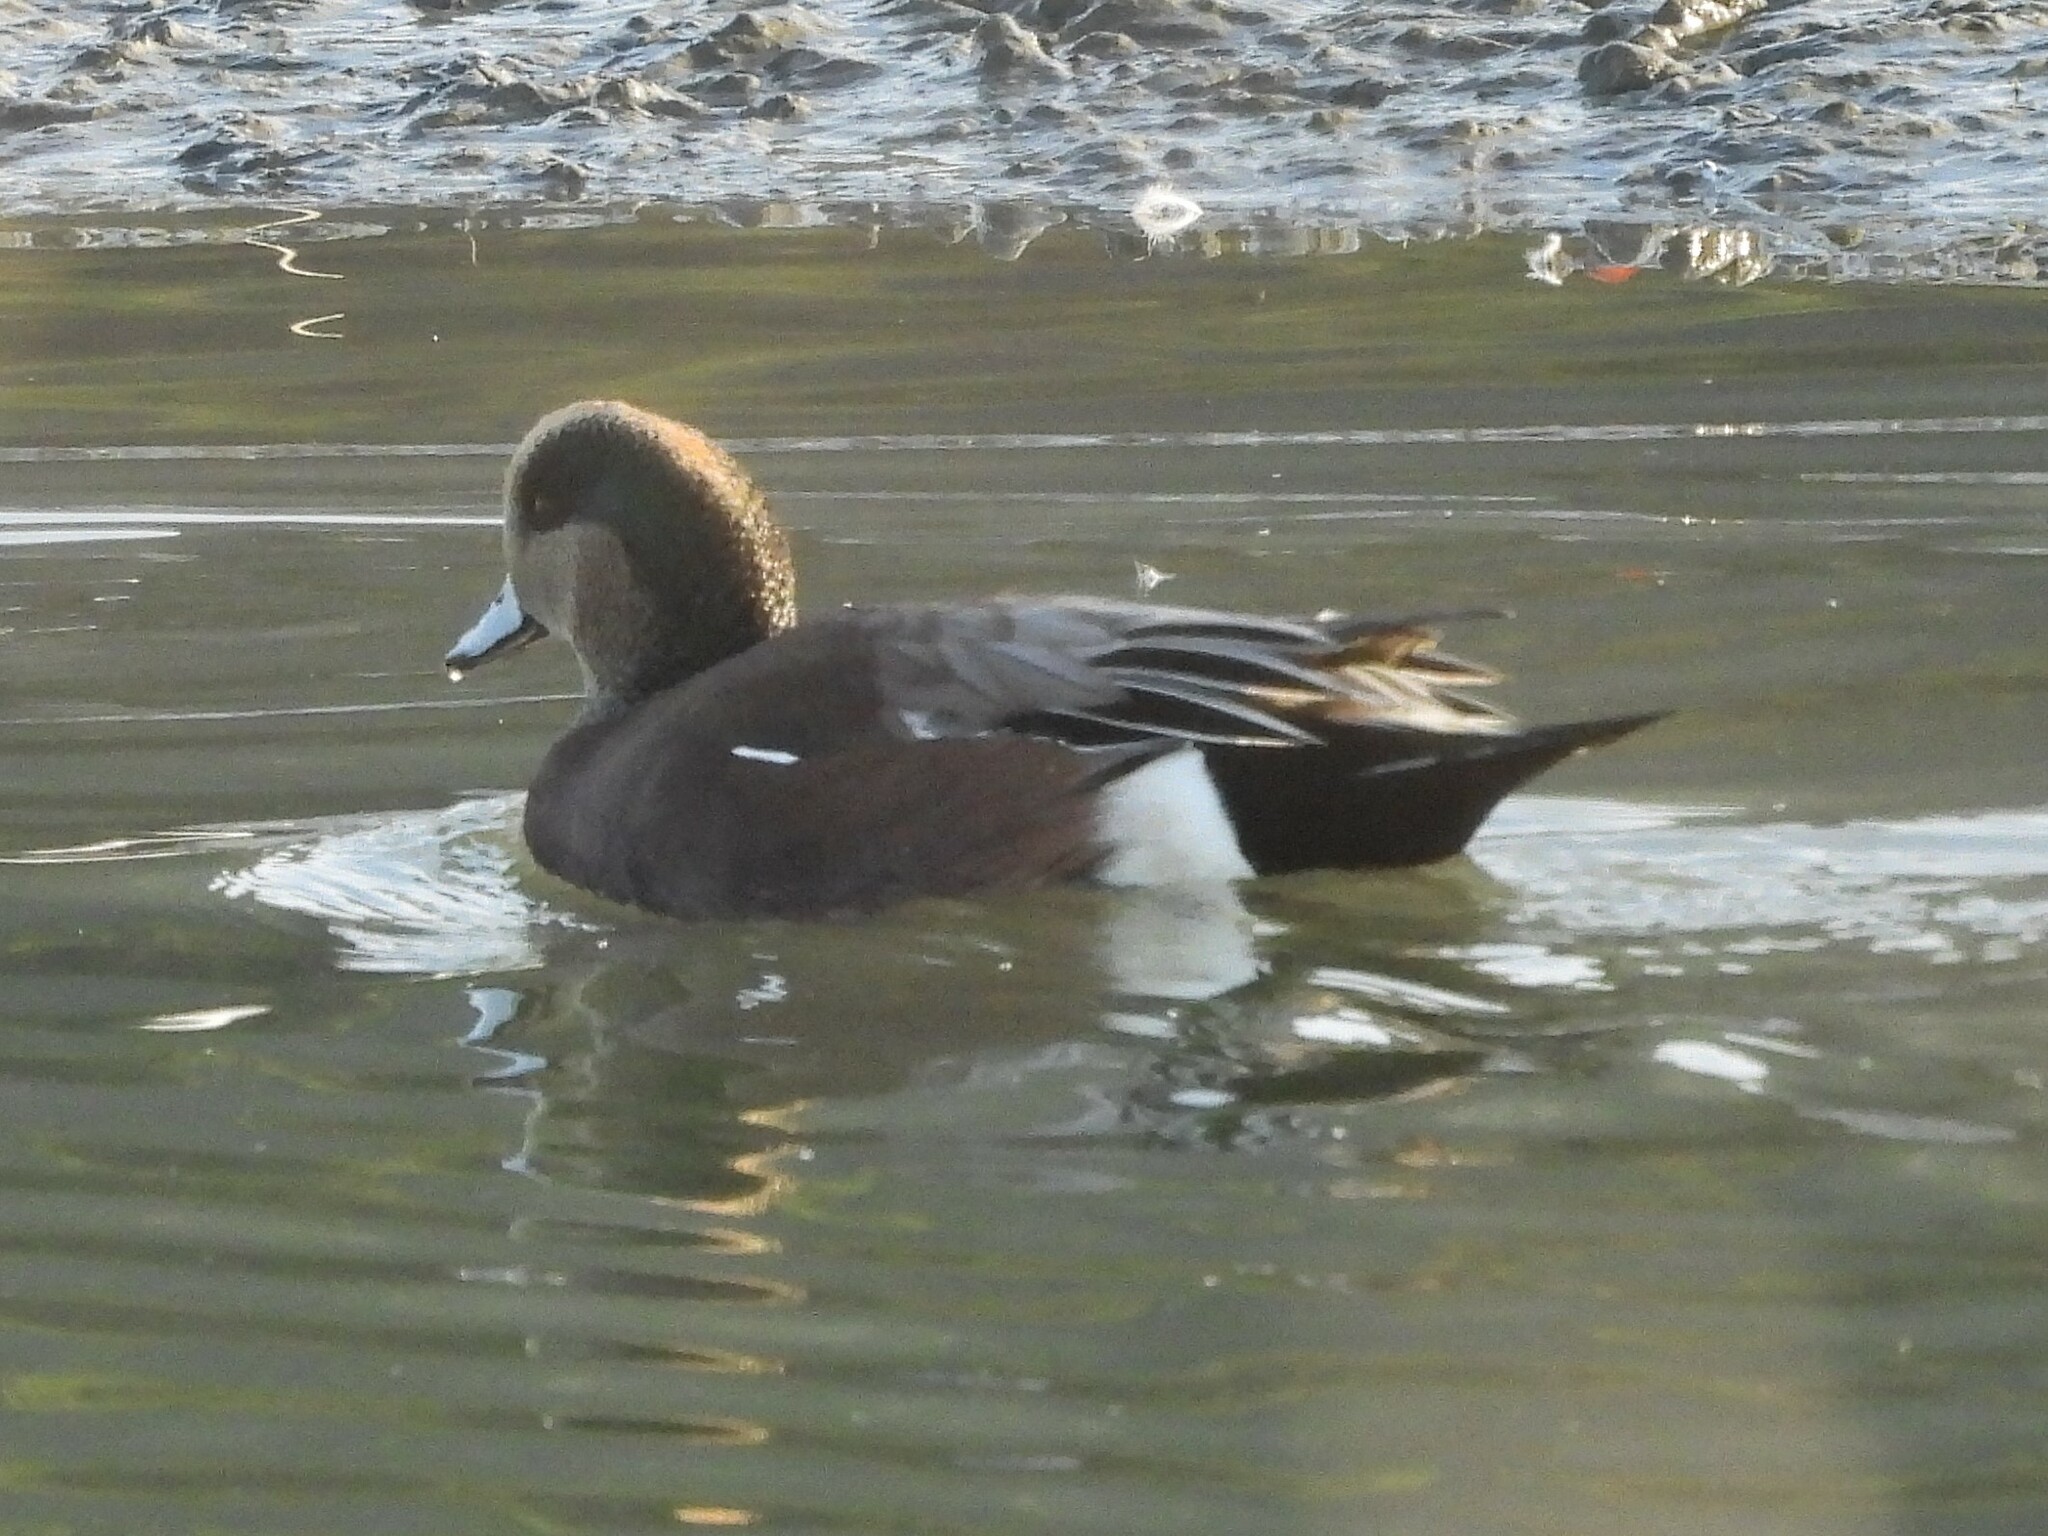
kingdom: Animalia
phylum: Chordata
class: Aves
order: Anseriformes
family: Anatidae
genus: Mareca
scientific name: Mareca americana
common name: American wigeon
